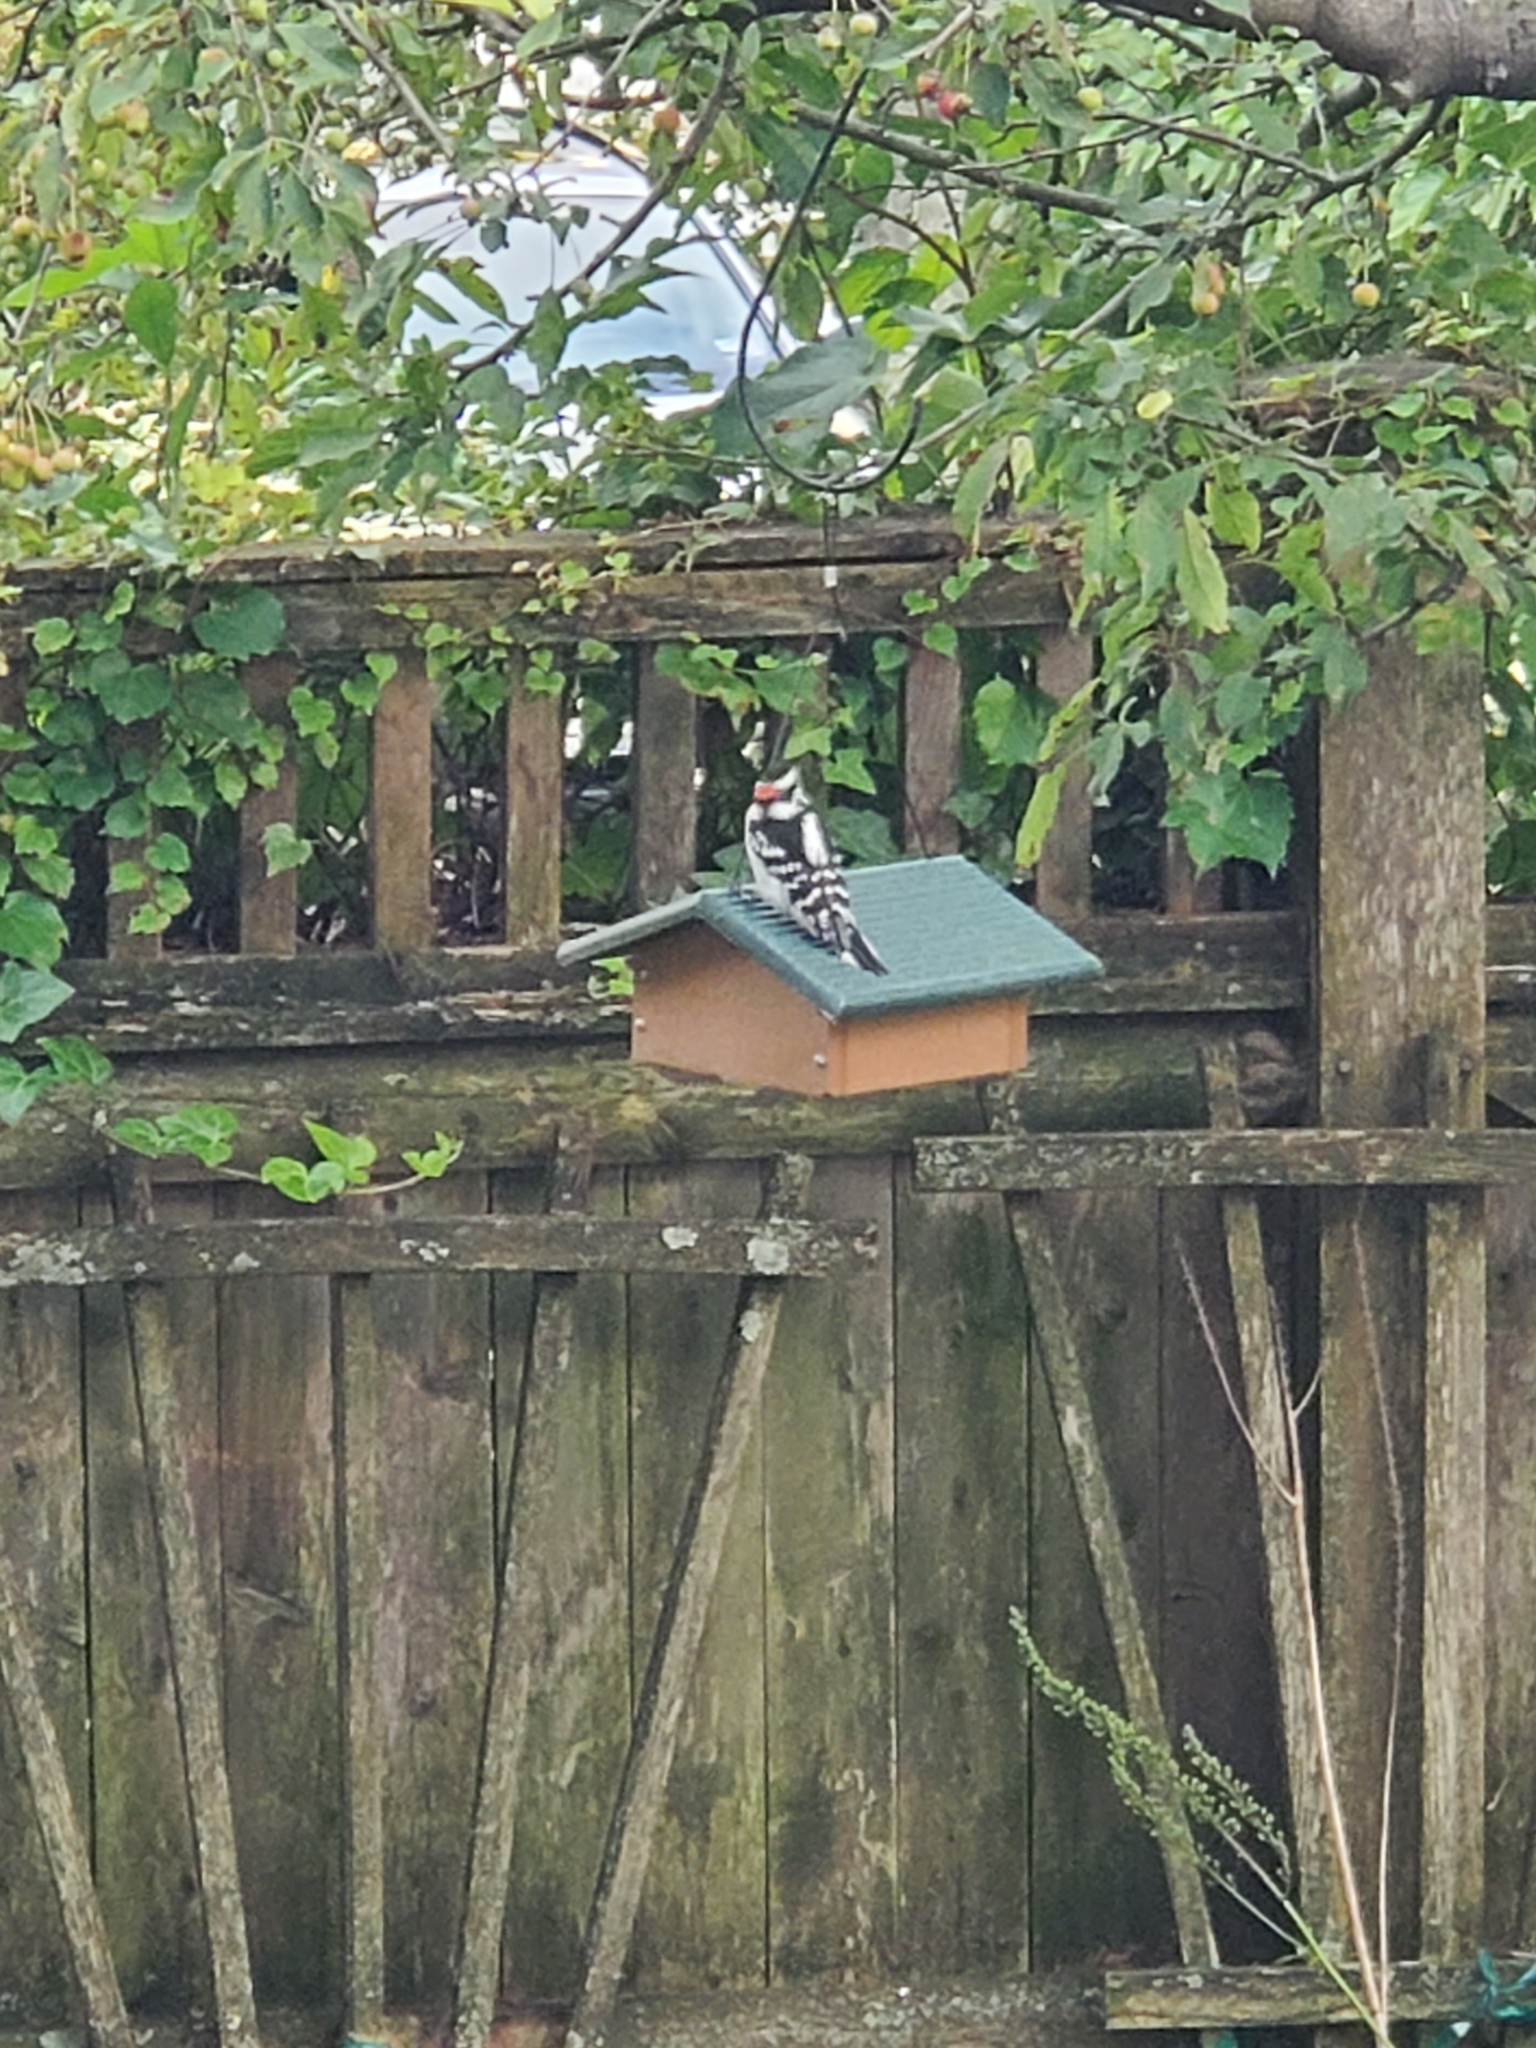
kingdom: Animalia
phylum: Chordata
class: Aves
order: Piciformes
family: Picidae
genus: Dryobates
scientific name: Dryobates pubescens
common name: Downy woodpecker
